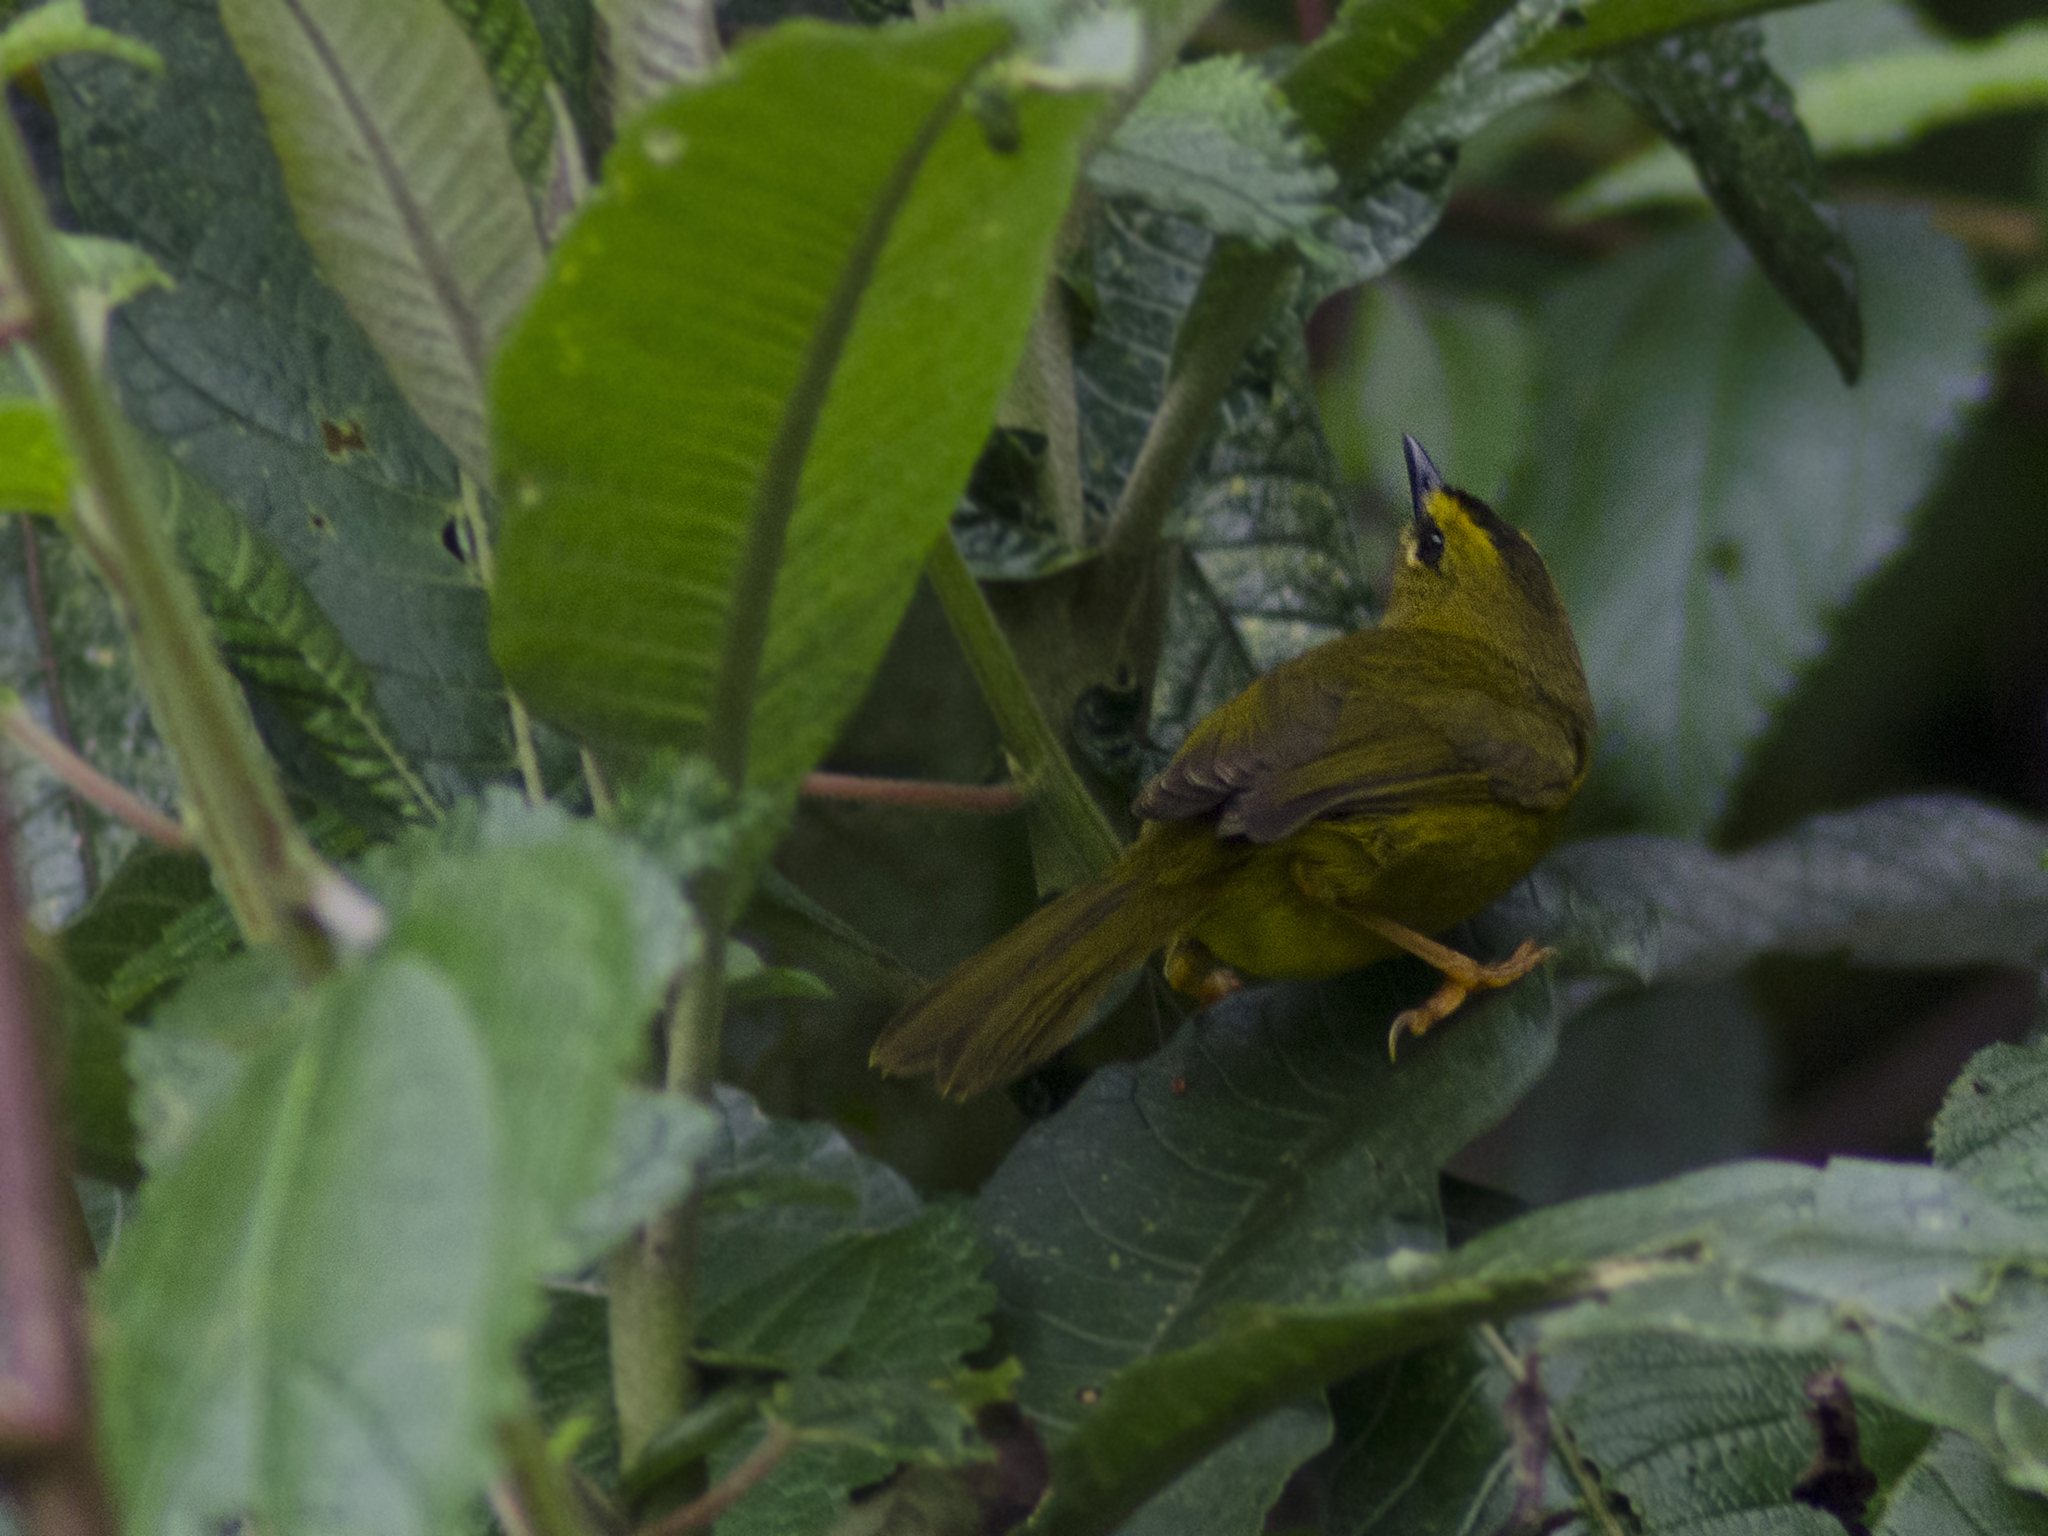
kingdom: Animalia
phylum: Chordata
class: Aves
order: Passeriformes
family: Parulidae
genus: Myiothlypis
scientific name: Myiothlypis nigrocristata
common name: Black-crested warbler
